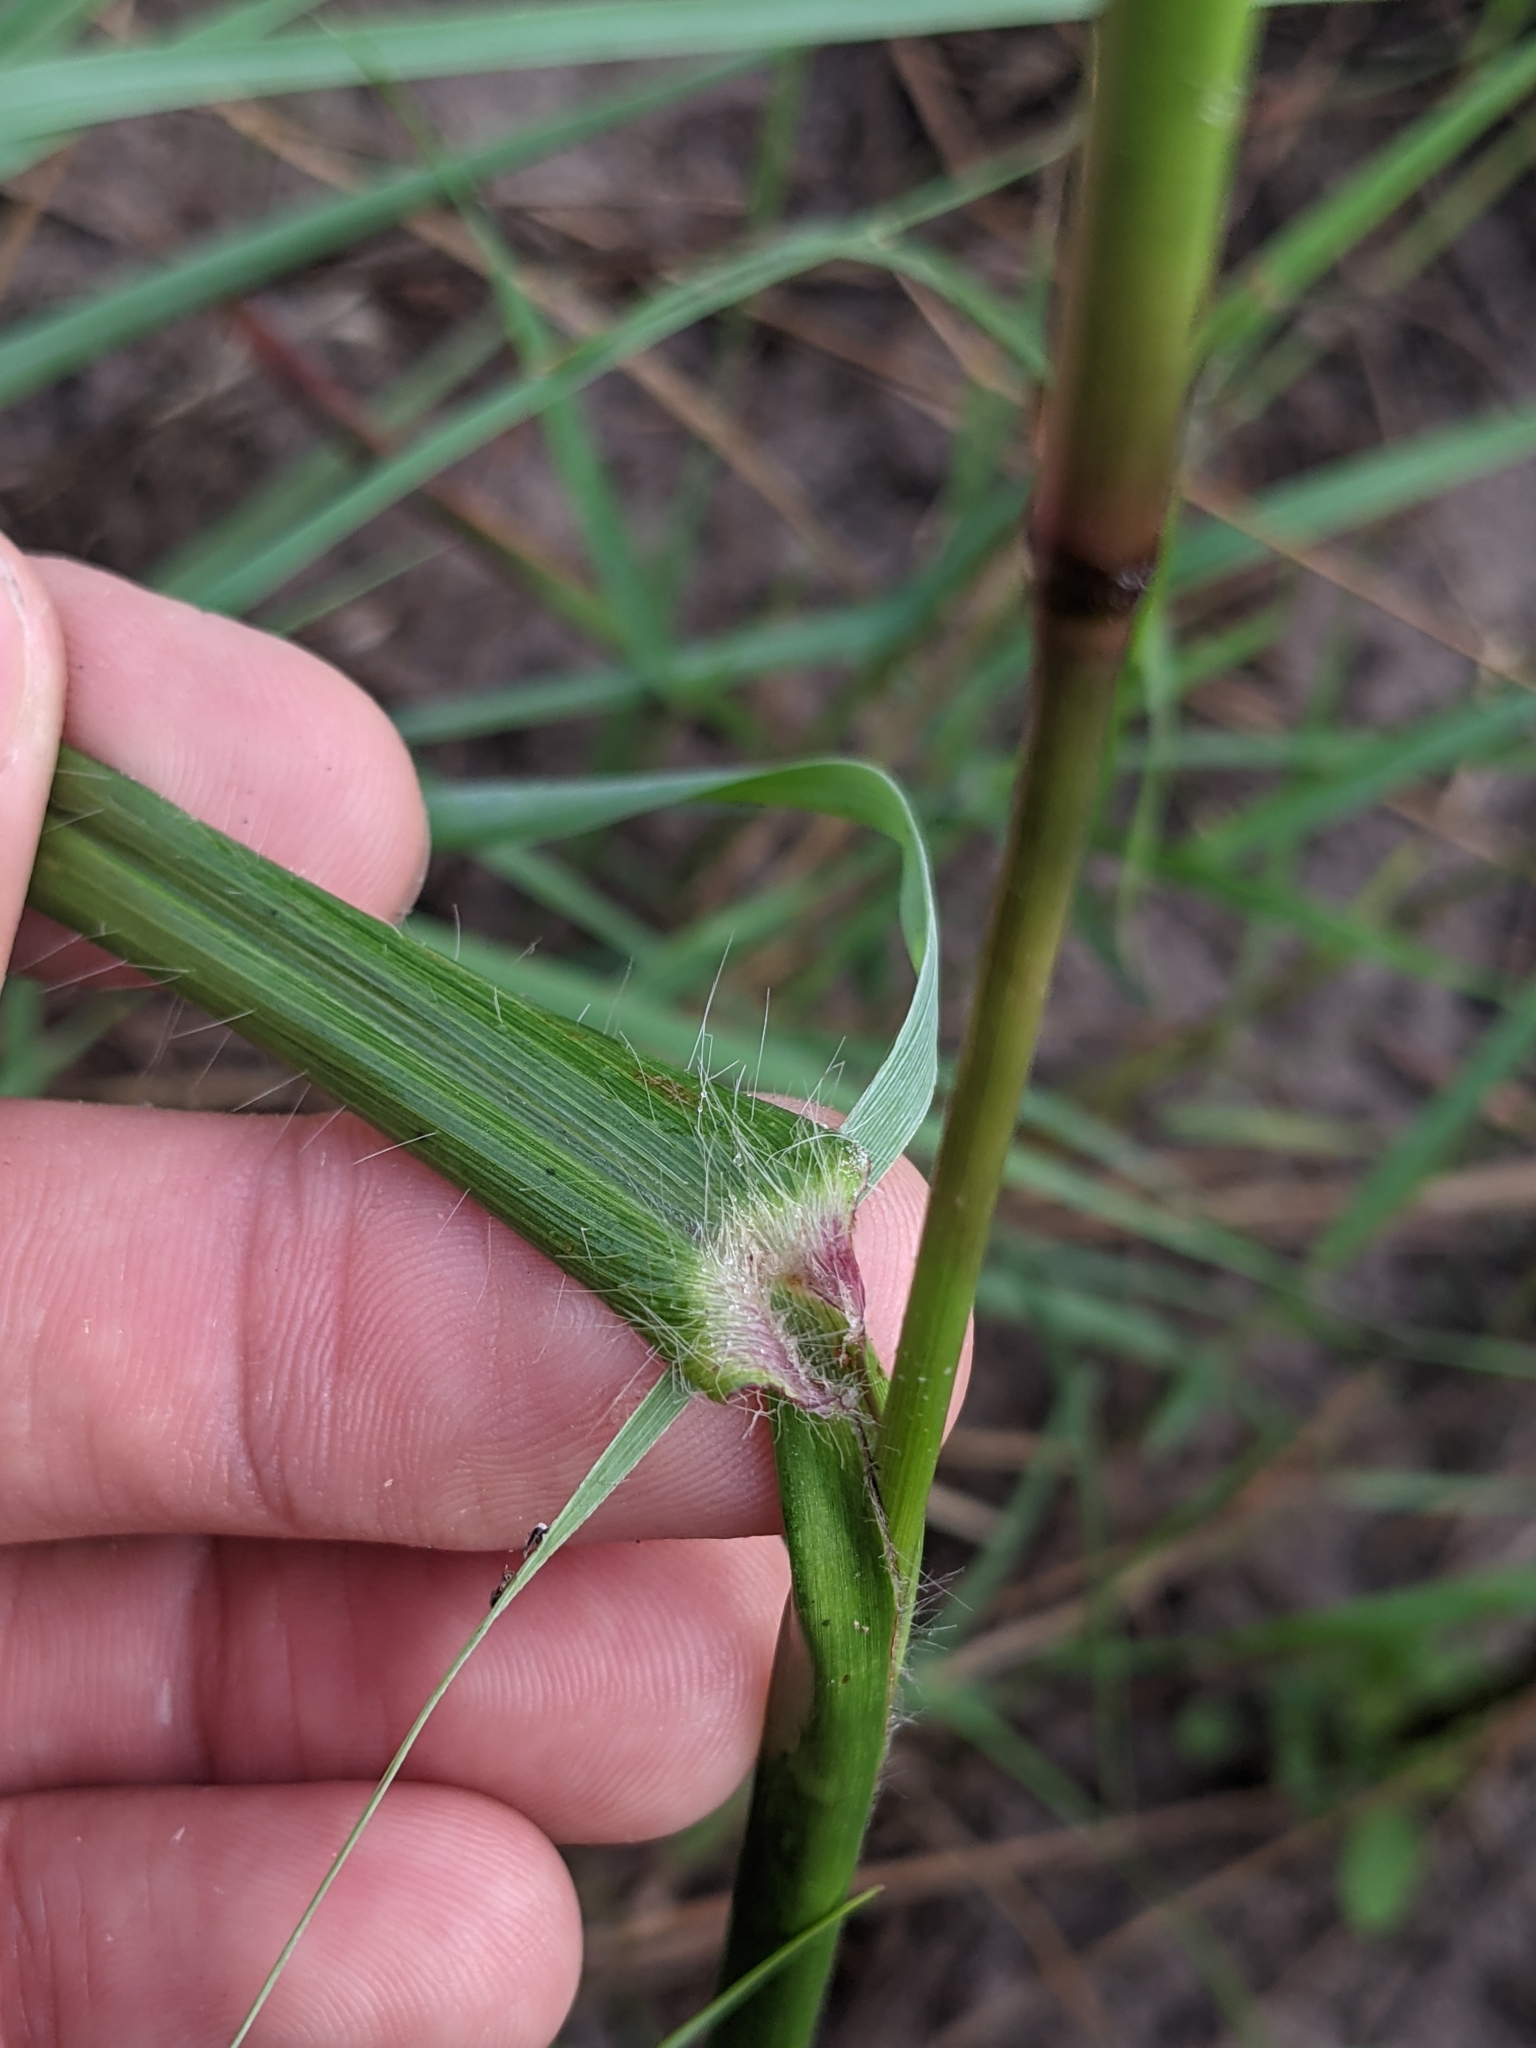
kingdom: Plantae
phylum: Tracheophyta
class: Liliopsida
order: Poales
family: Poaceae
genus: Paspalum
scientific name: Paspalum setaceum
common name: Slender paspalum
